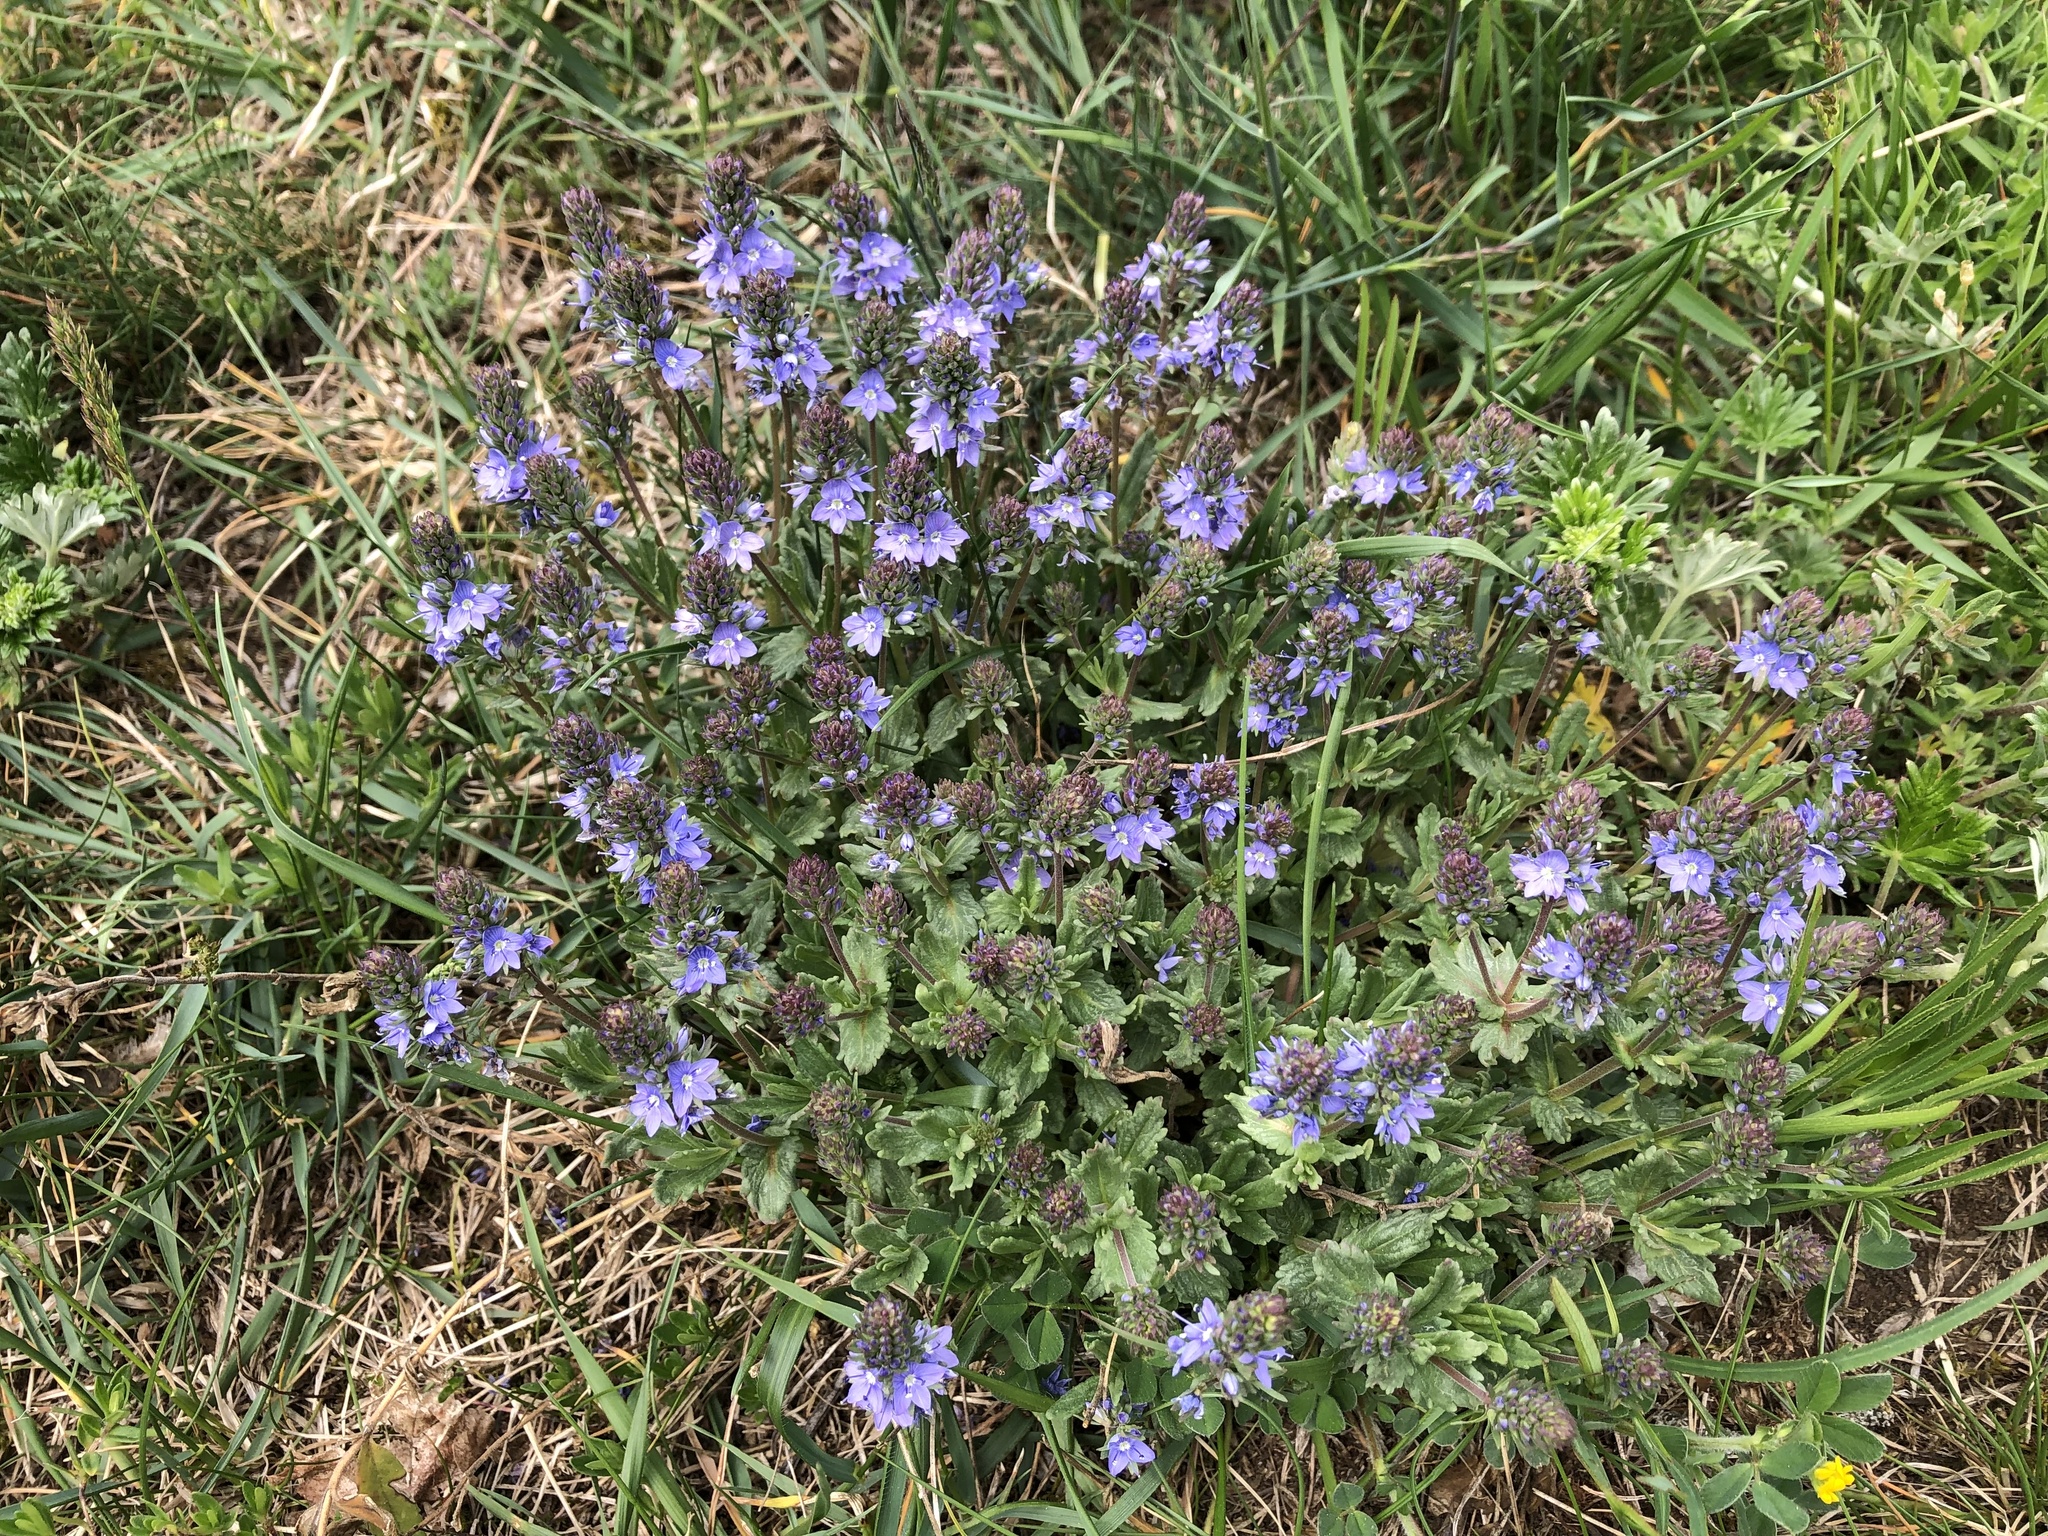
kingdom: Plantae
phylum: Tracheophyta
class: Magnoliopsida
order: Lamiales
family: Plantaginaceae
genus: Veronica
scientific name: Veronica prostrata
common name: Prostrate speedwell
